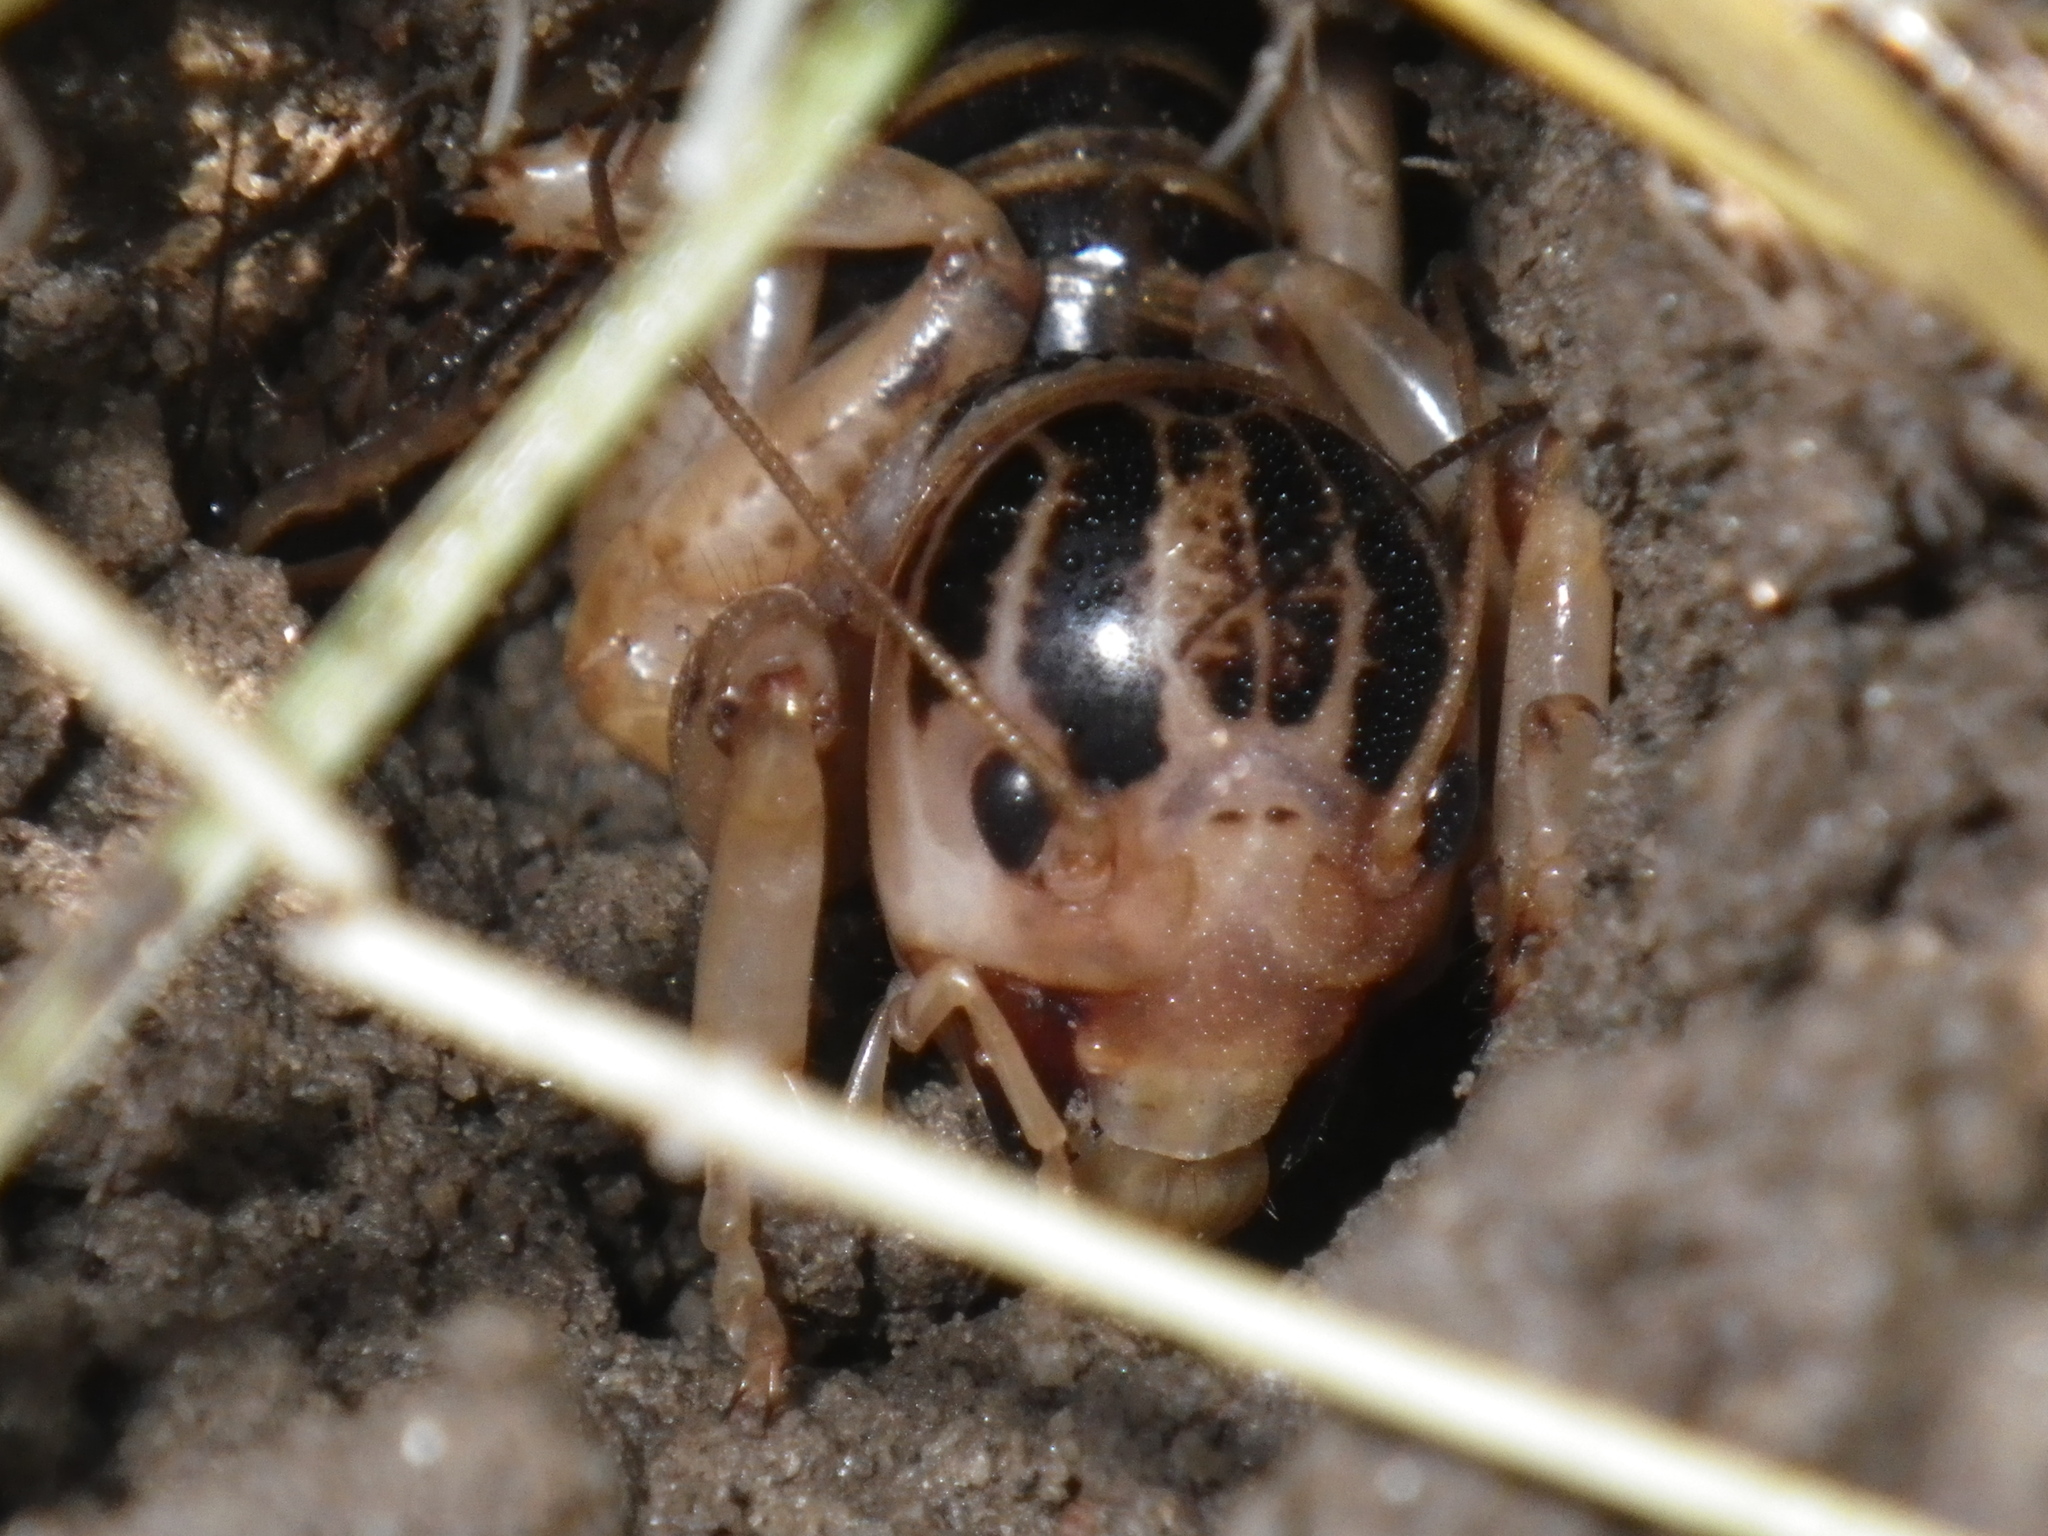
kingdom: Animalia
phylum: Arthropoda
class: Insecta
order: Orthoptera
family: Stenopelmatidae
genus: Ammopelmatus
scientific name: Ammopelmatus pictus
